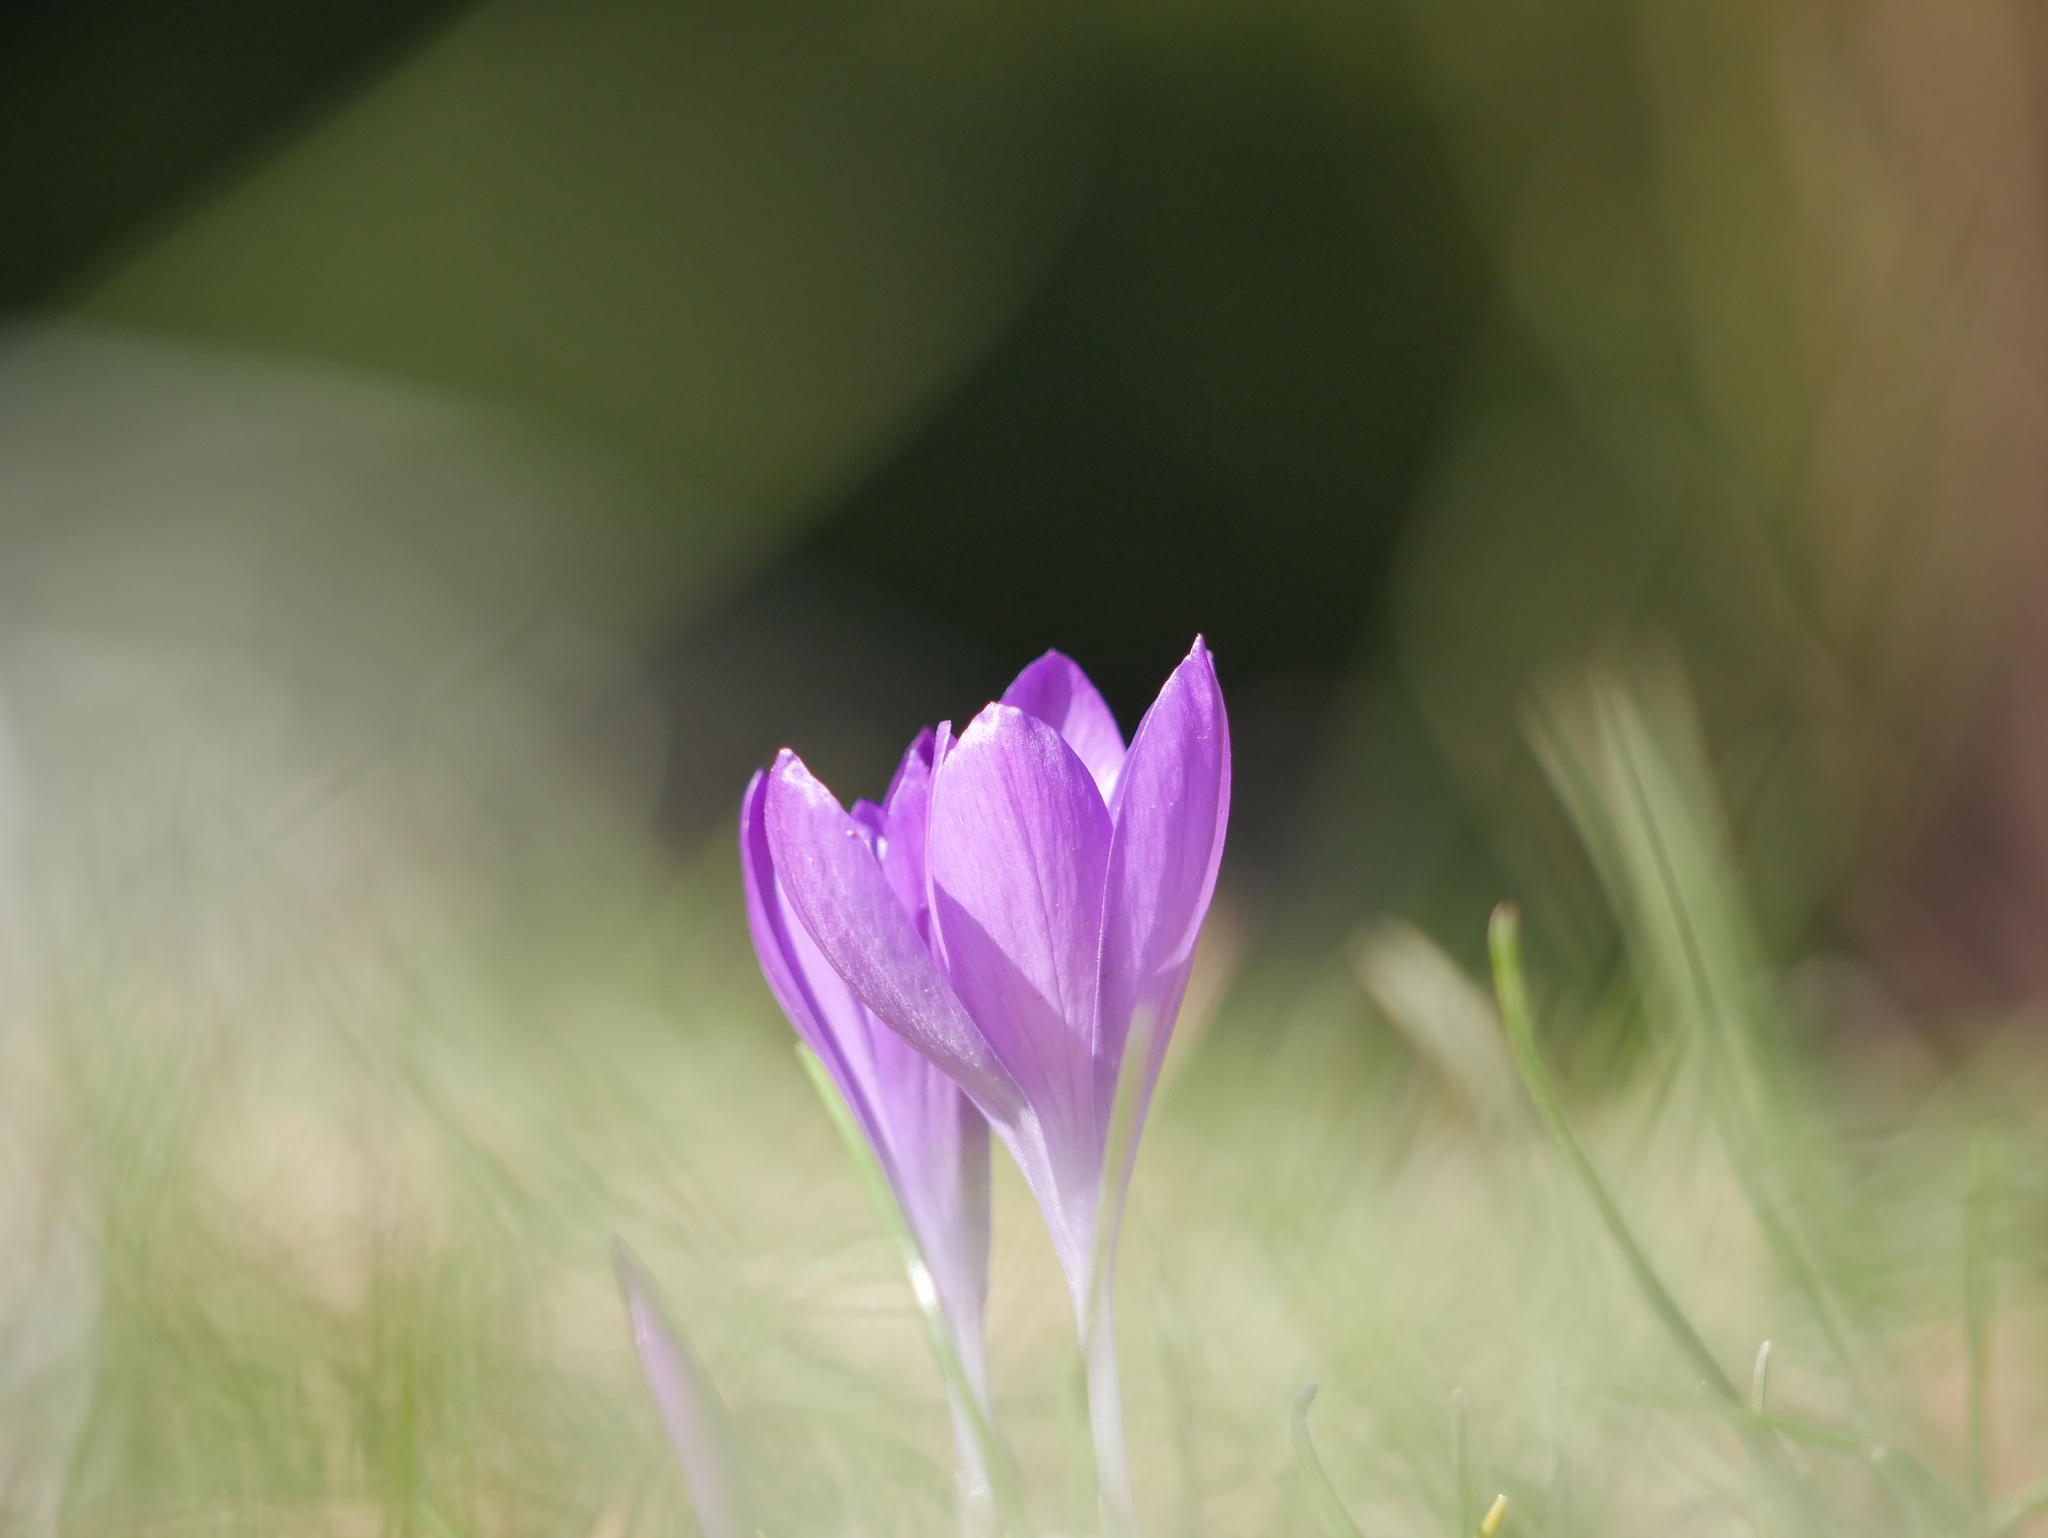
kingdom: Plantae
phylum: Tracheophyta
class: Liliopsida
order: Asparagales
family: Iridaceae
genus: Crocus
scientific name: Crocus tommasinianus
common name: Early crocus
